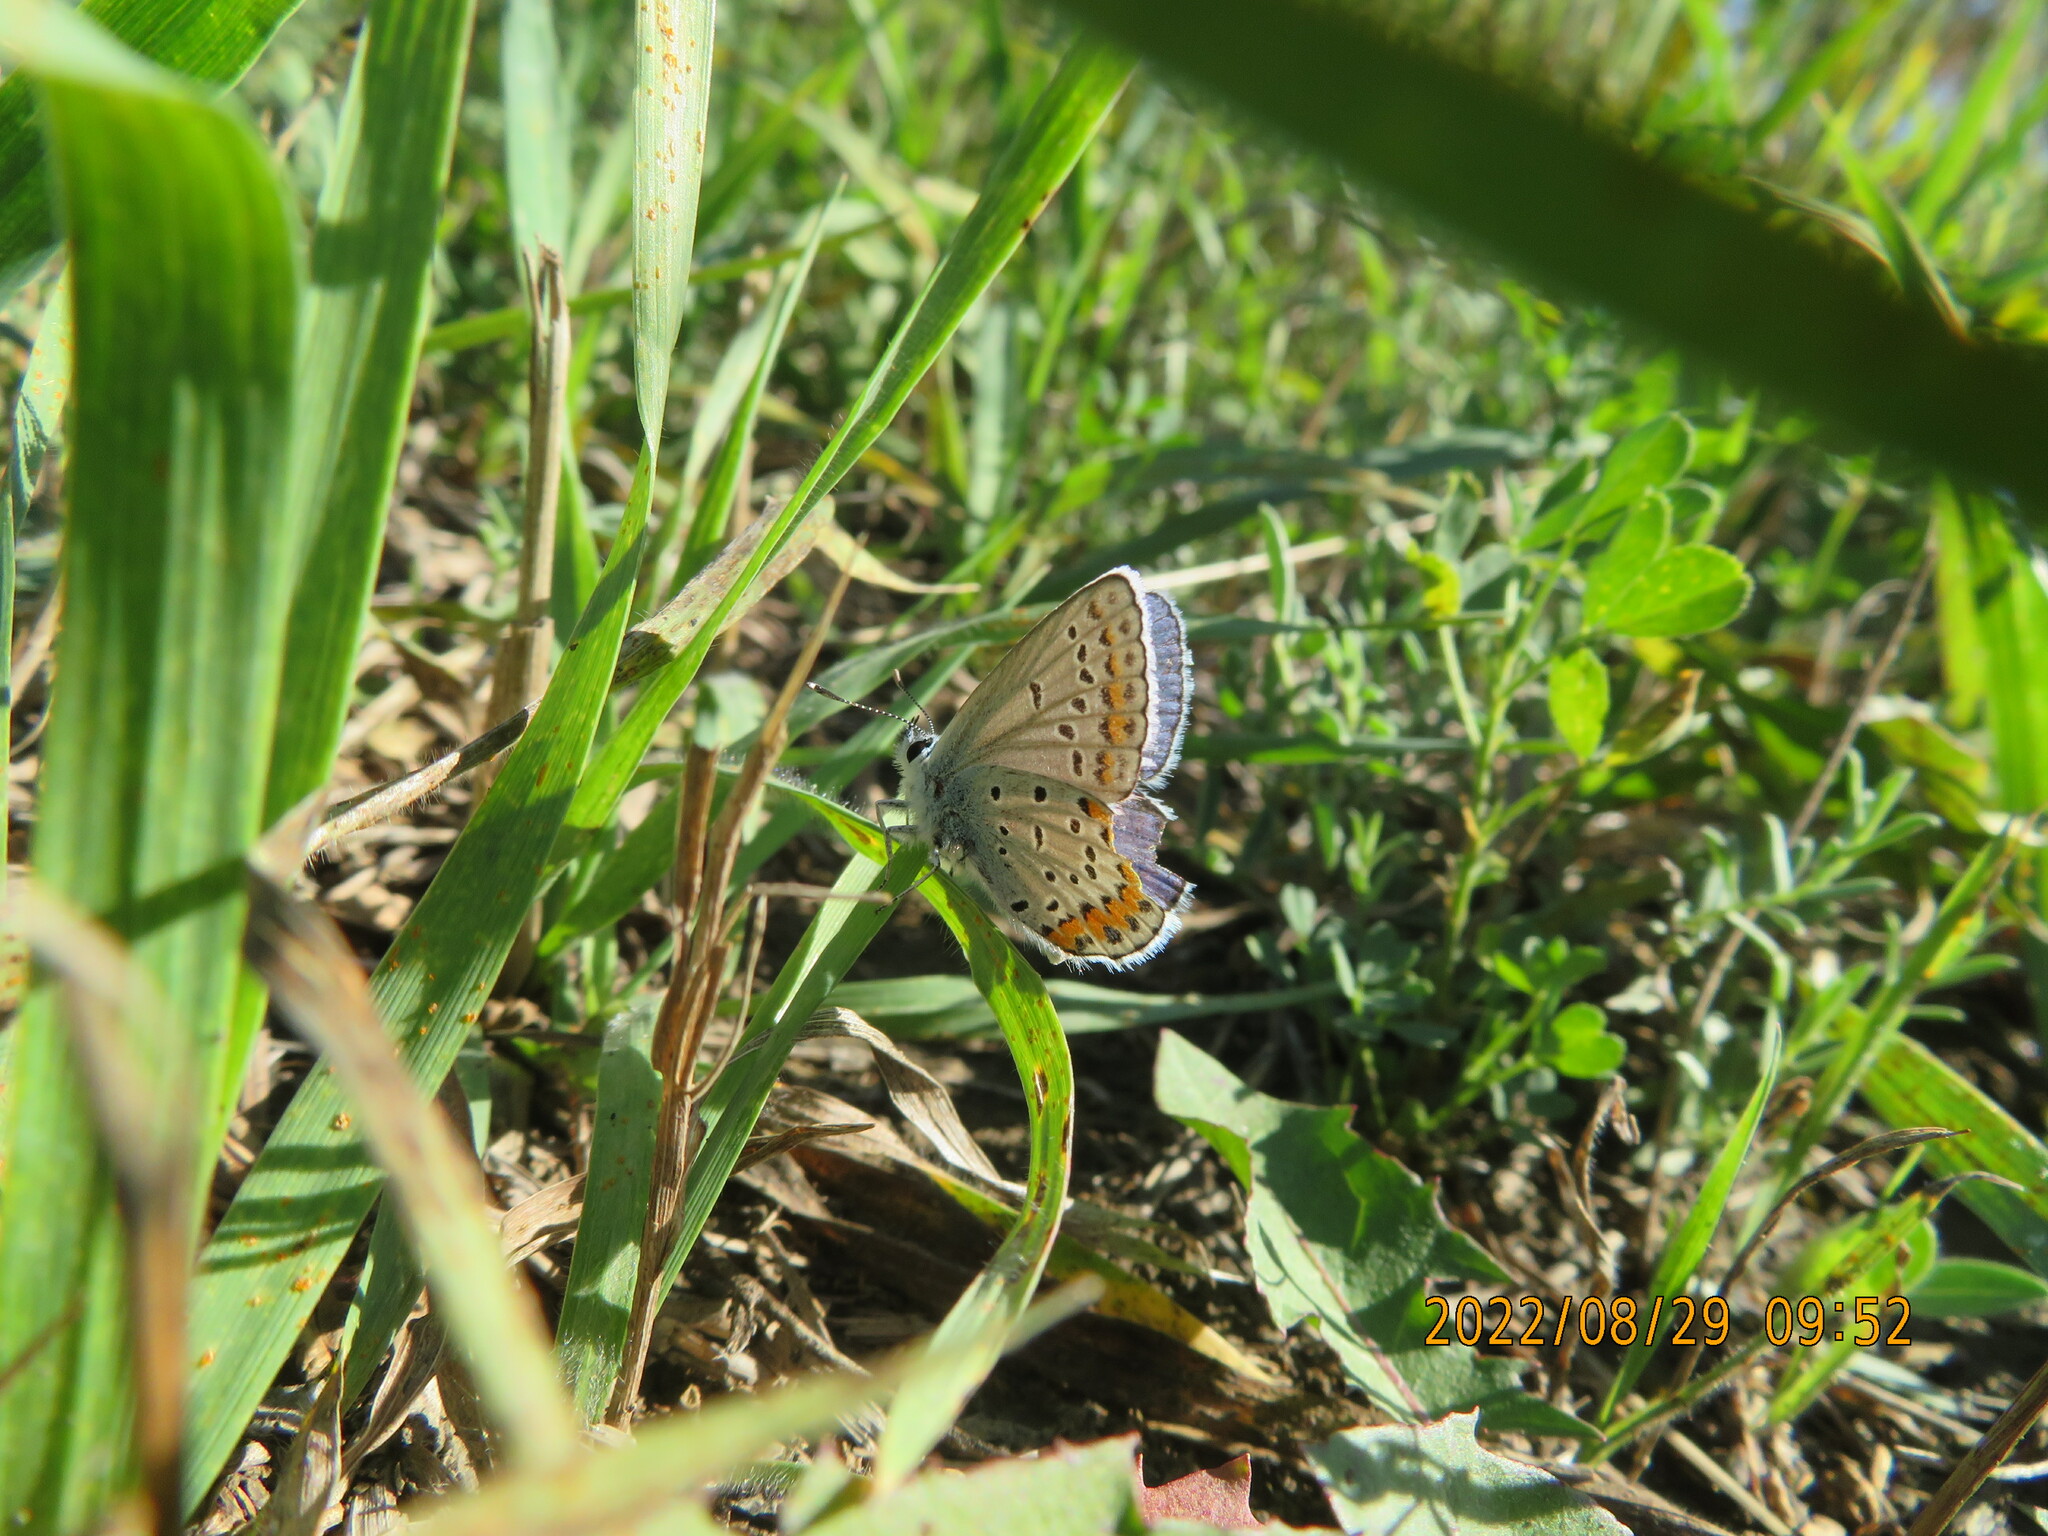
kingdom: Animalia
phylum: Arthropoda
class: Insecta
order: Lepidoptera
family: Lycaenidae
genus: Lycaeides
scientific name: Lycaeides melissa
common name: Melissa blue
